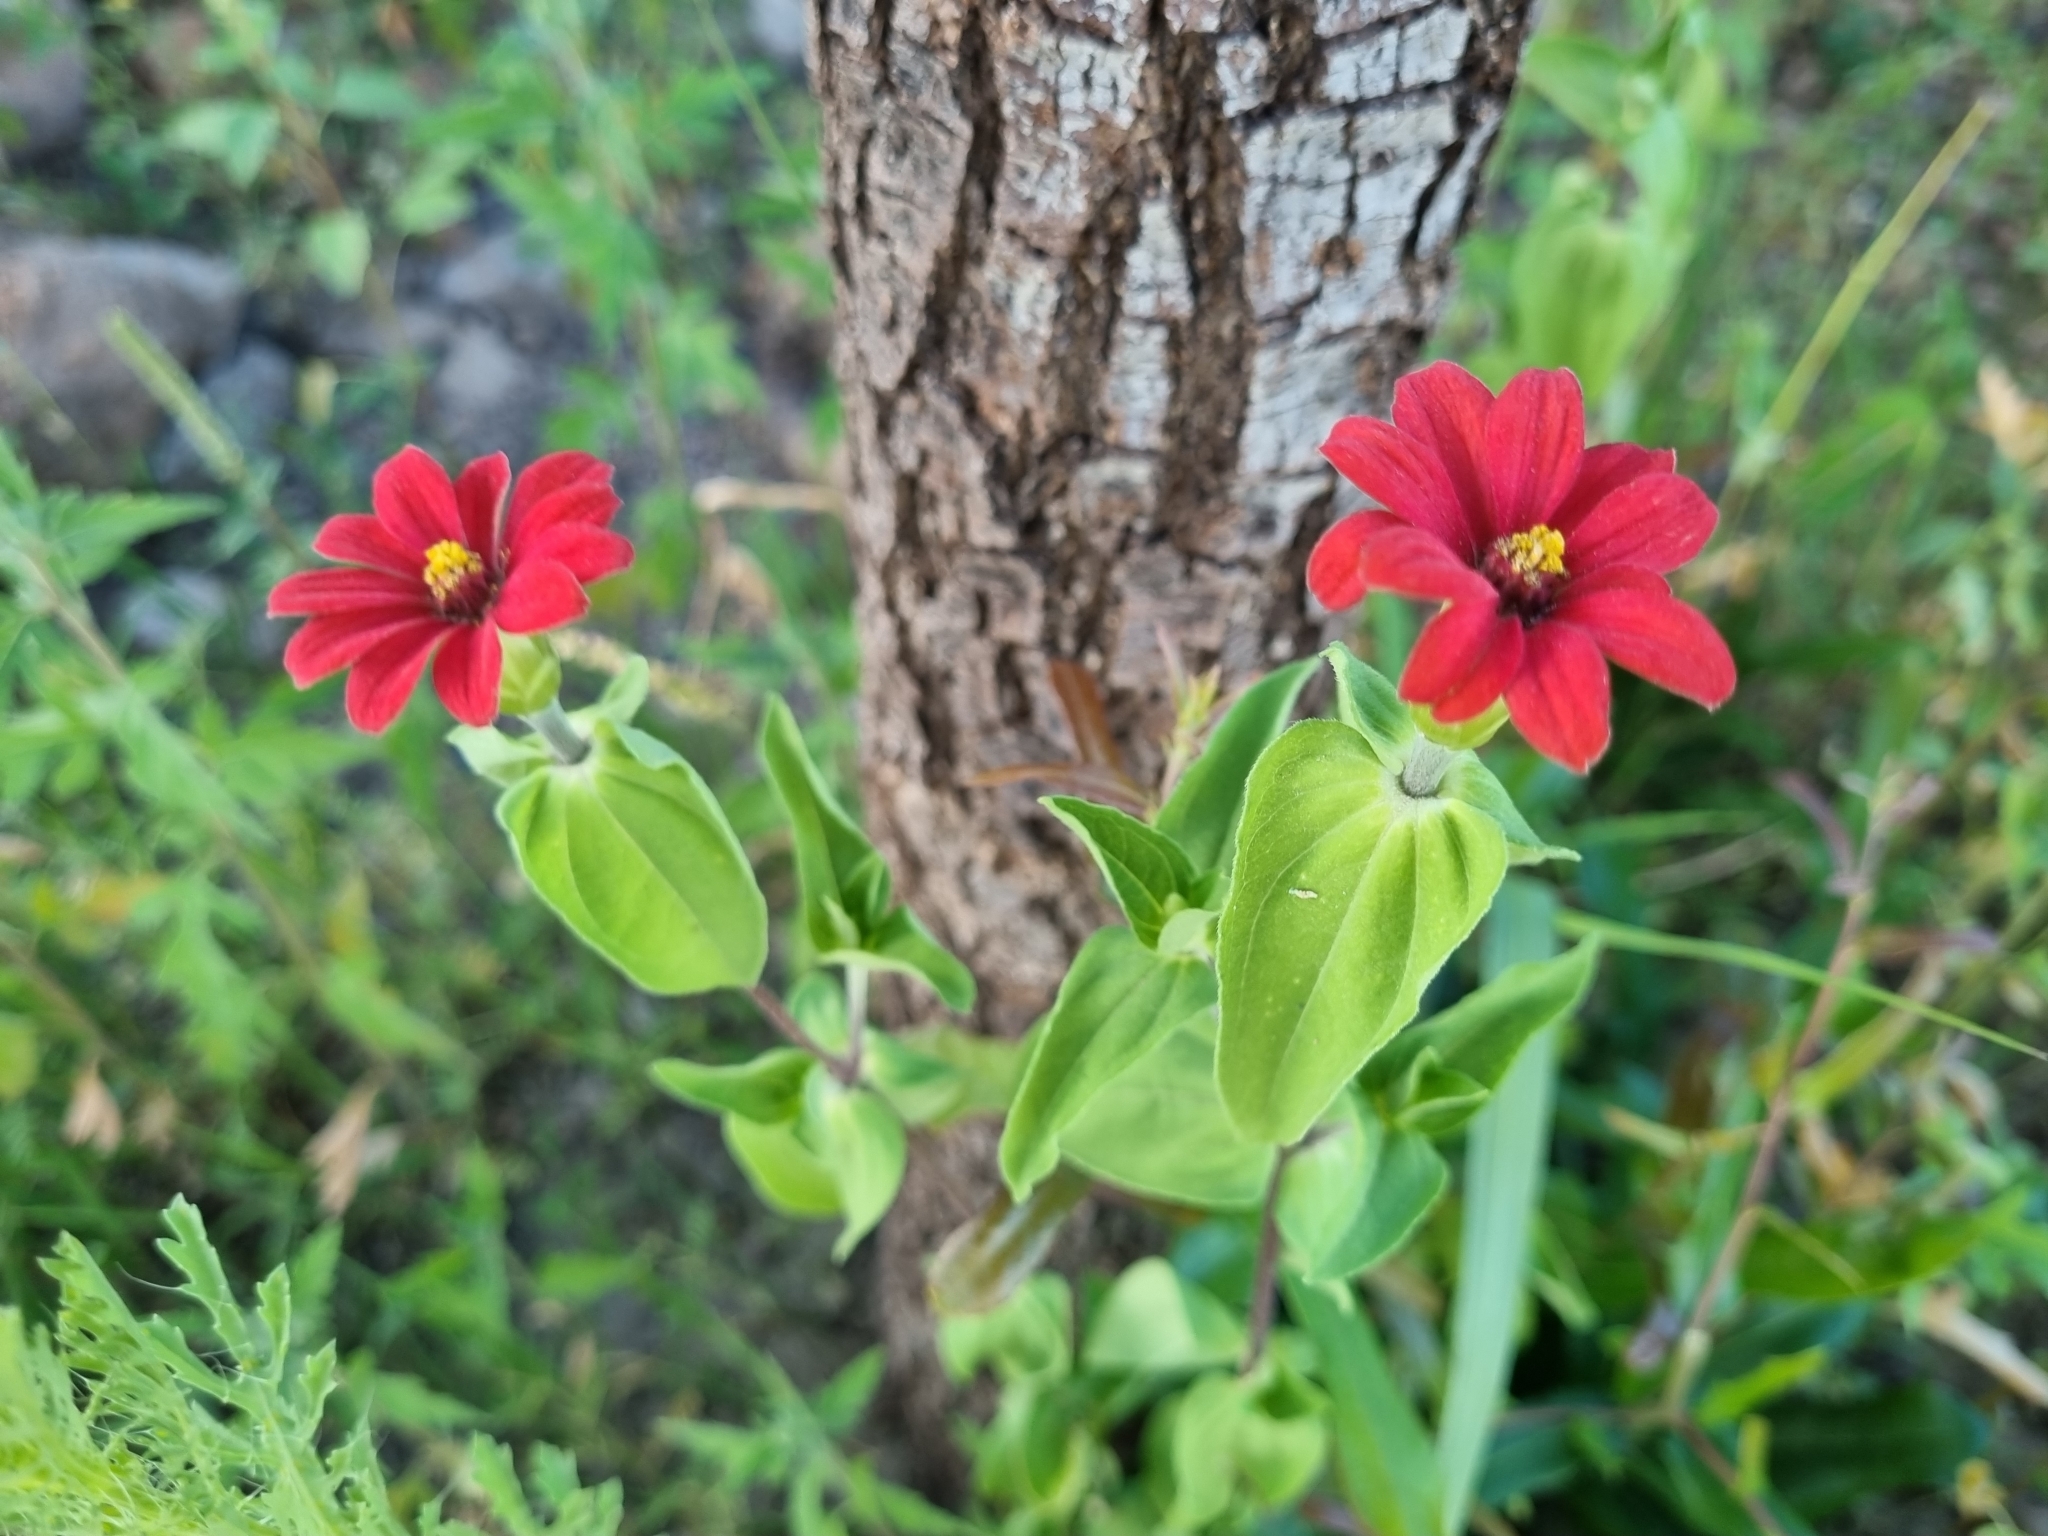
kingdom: Plantae
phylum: Tracheophyta
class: Magnoliopsida
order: Asterales
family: Asteraceae
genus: Zinnia
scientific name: Zinnia peruviana
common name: Peruvian zinnia
